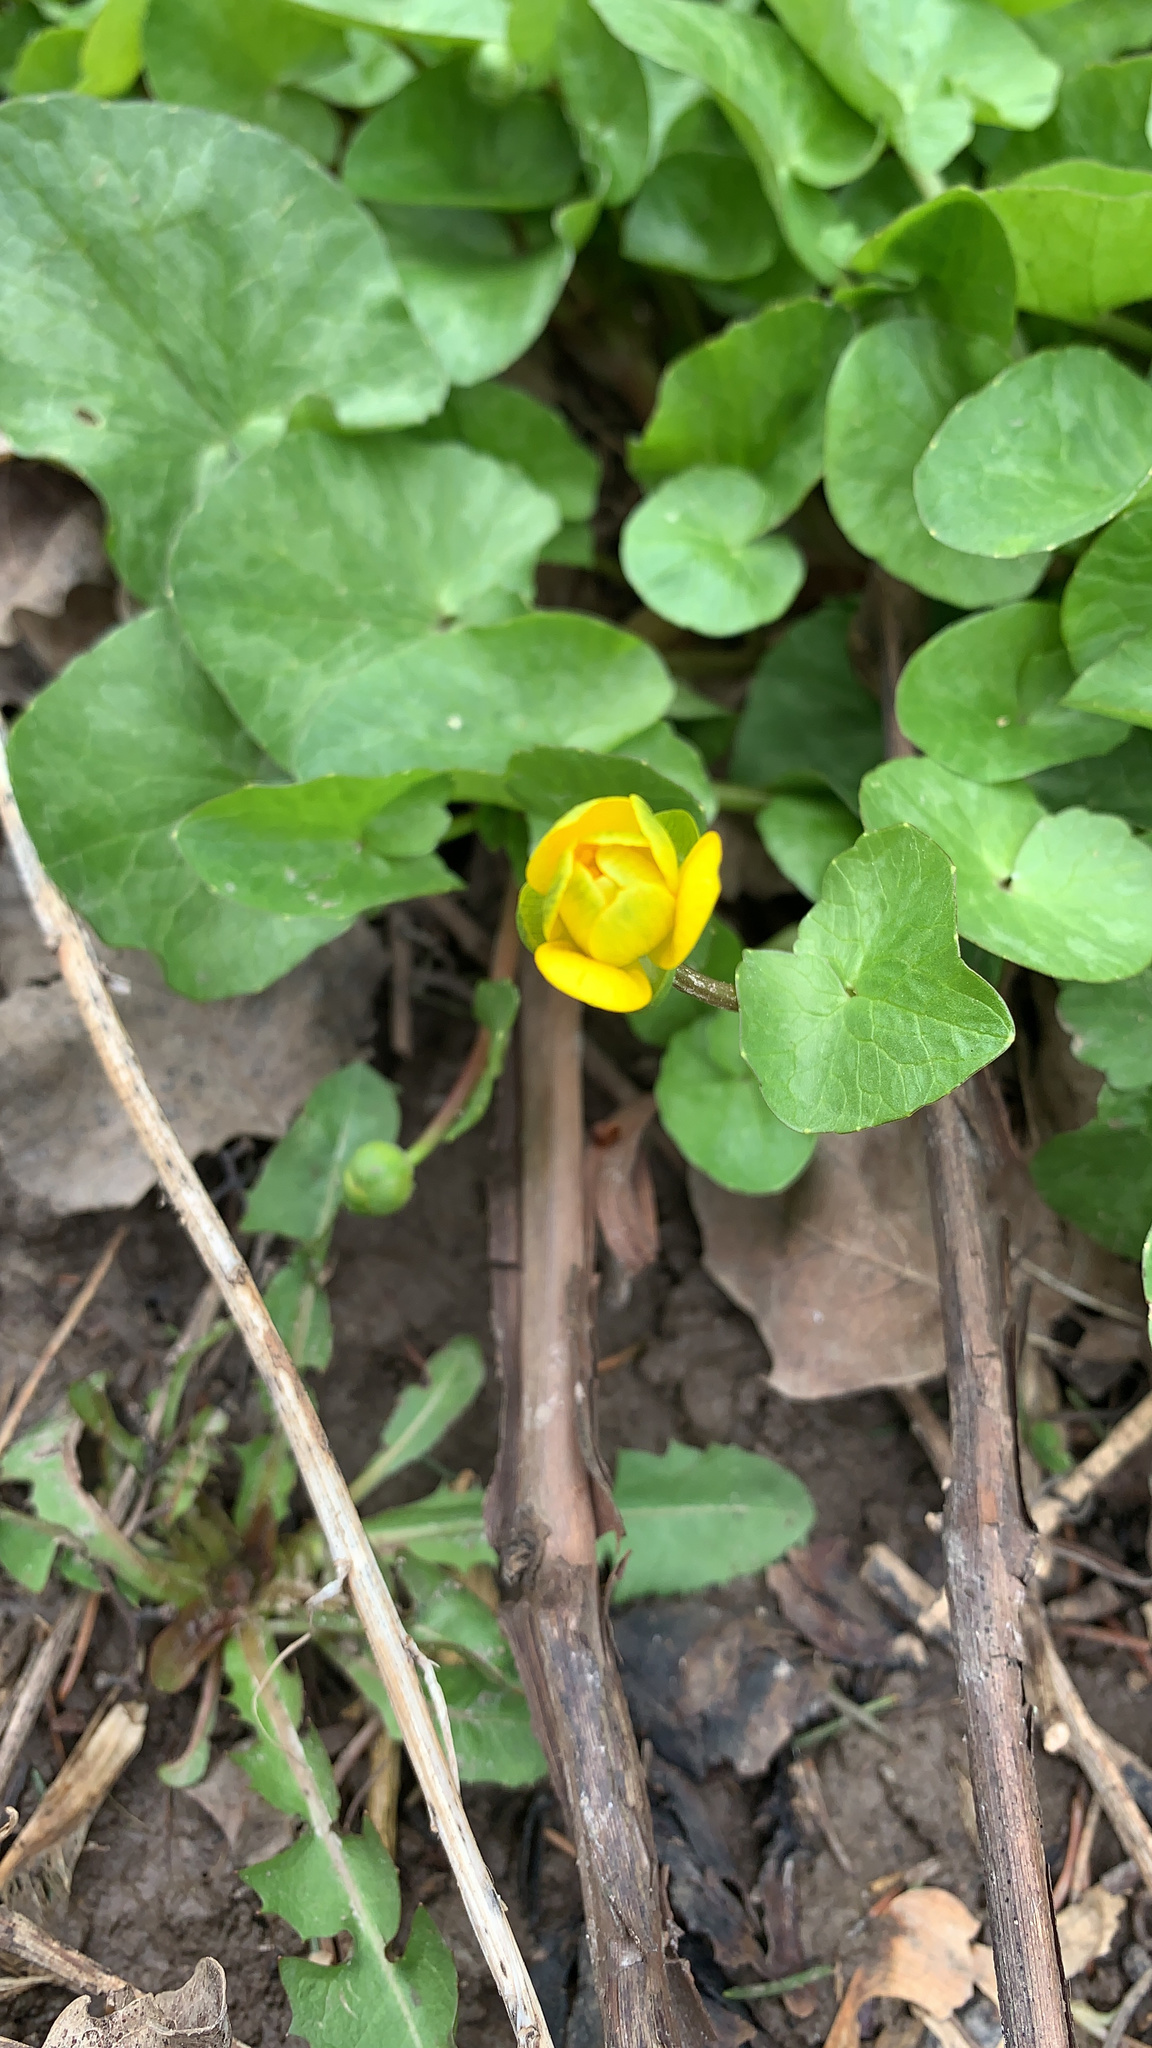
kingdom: Plantae
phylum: Tracheophyta
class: Magnoliopsida
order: Ranunculales
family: Ranunculaceae
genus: Ficaria
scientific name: Ficaria verna
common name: Lesser celandine
